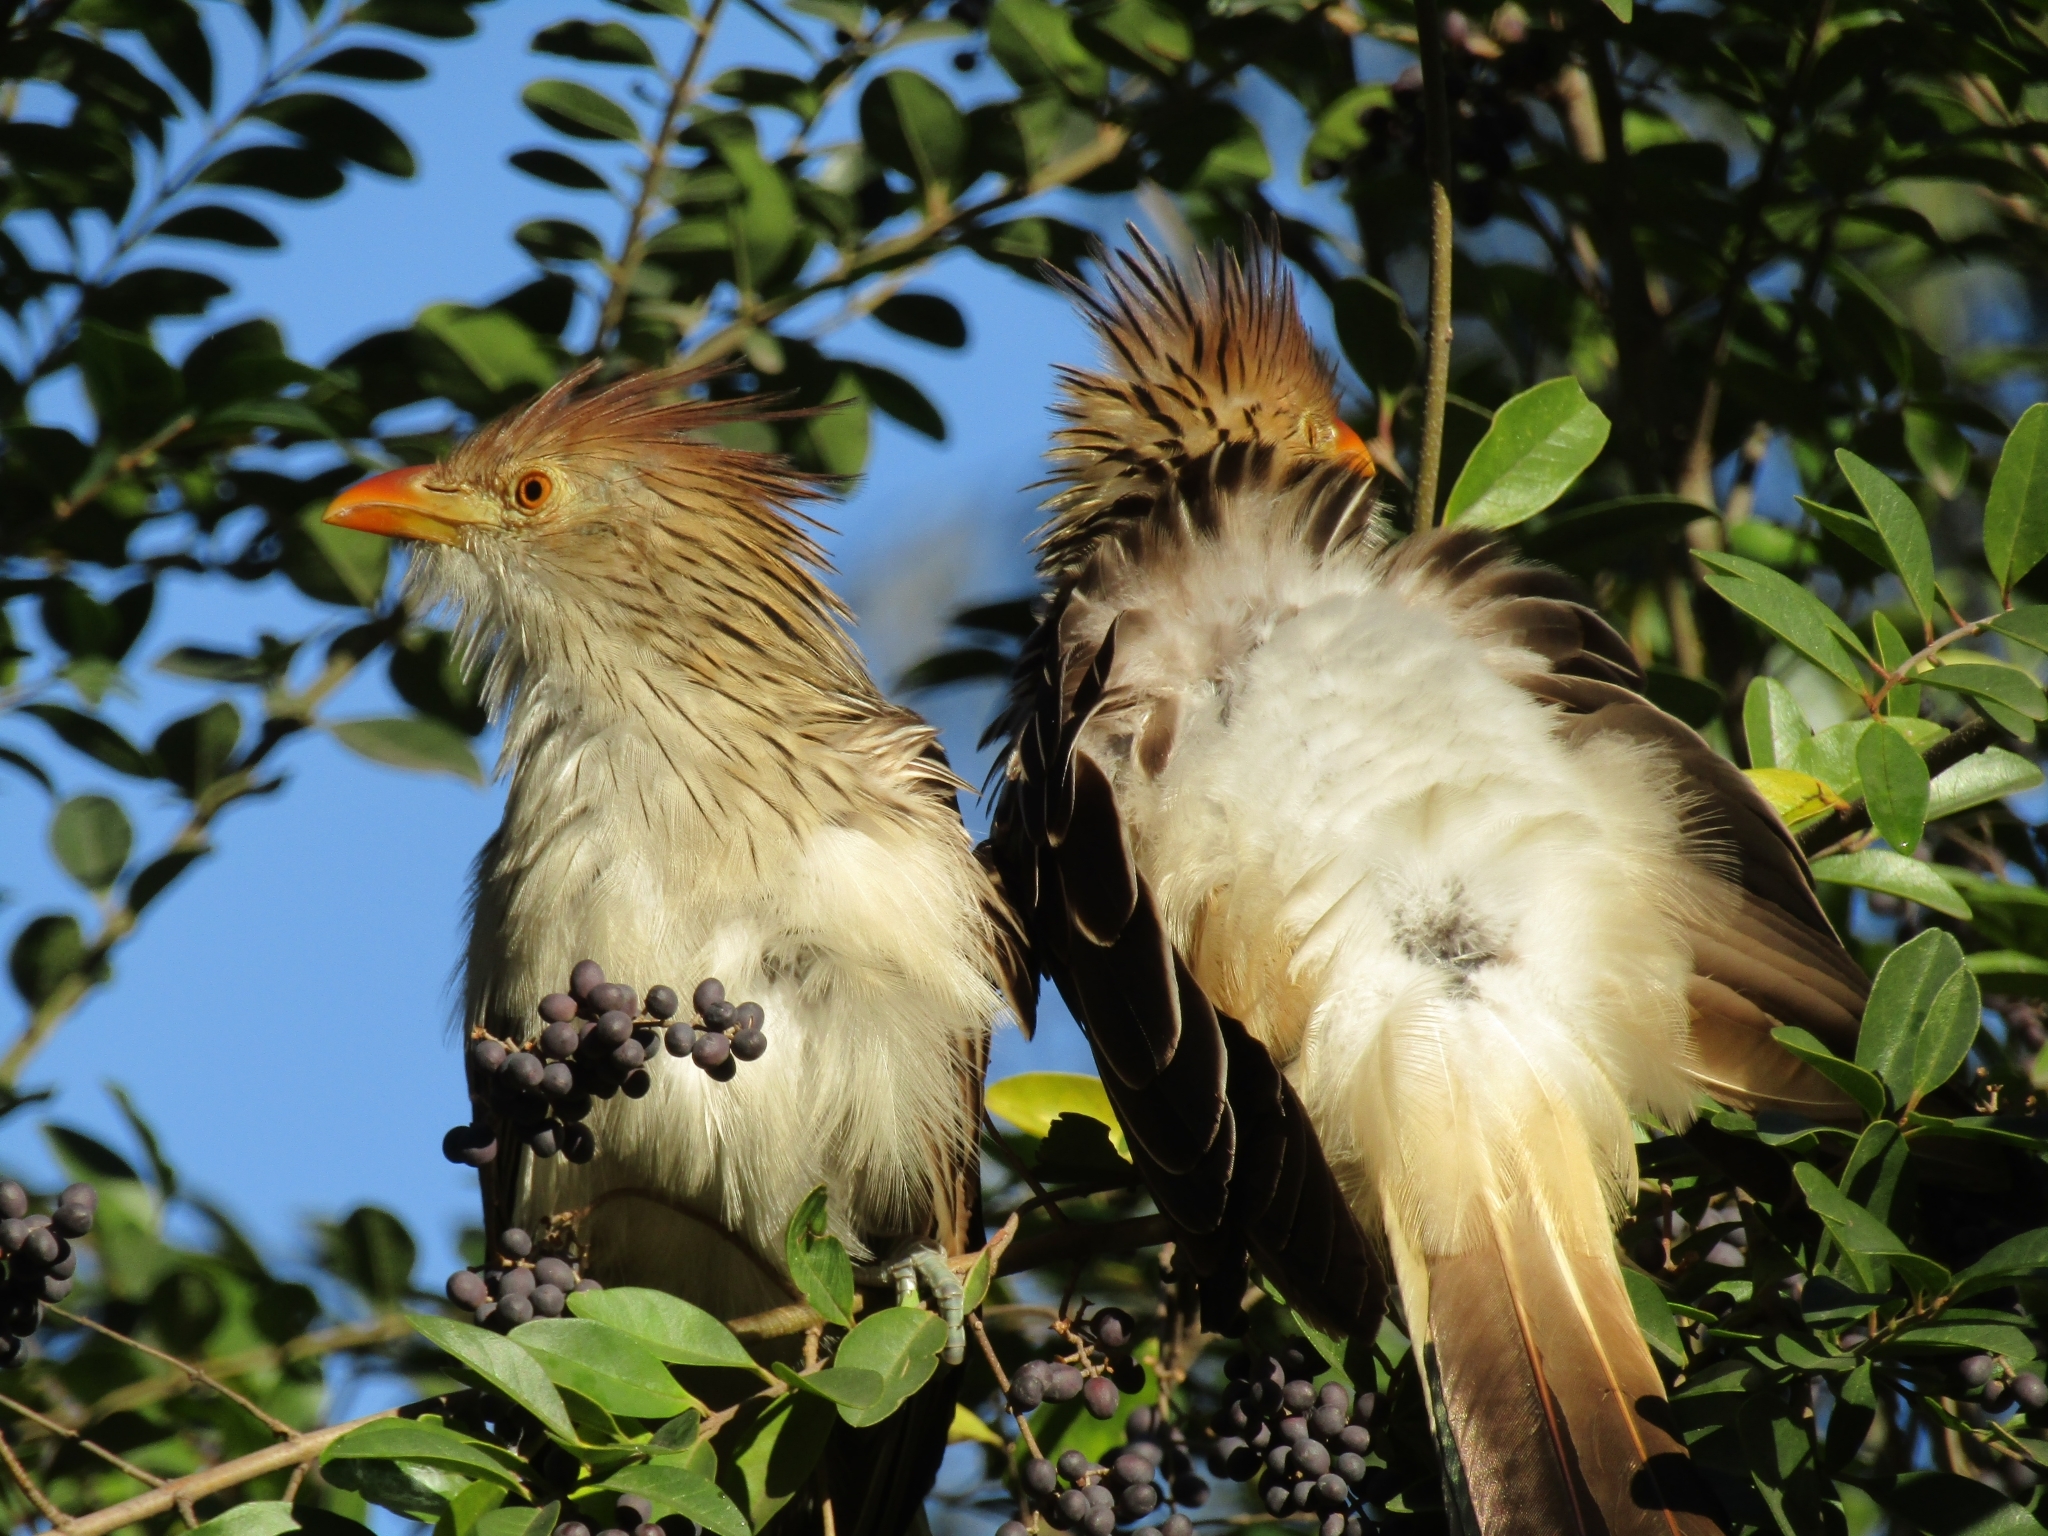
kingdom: Animalia
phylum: Chordata
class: Aves
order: Cuculiformes
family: Cuculidae
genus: Guira
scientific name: Guira guira
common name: Guira cuckoo
